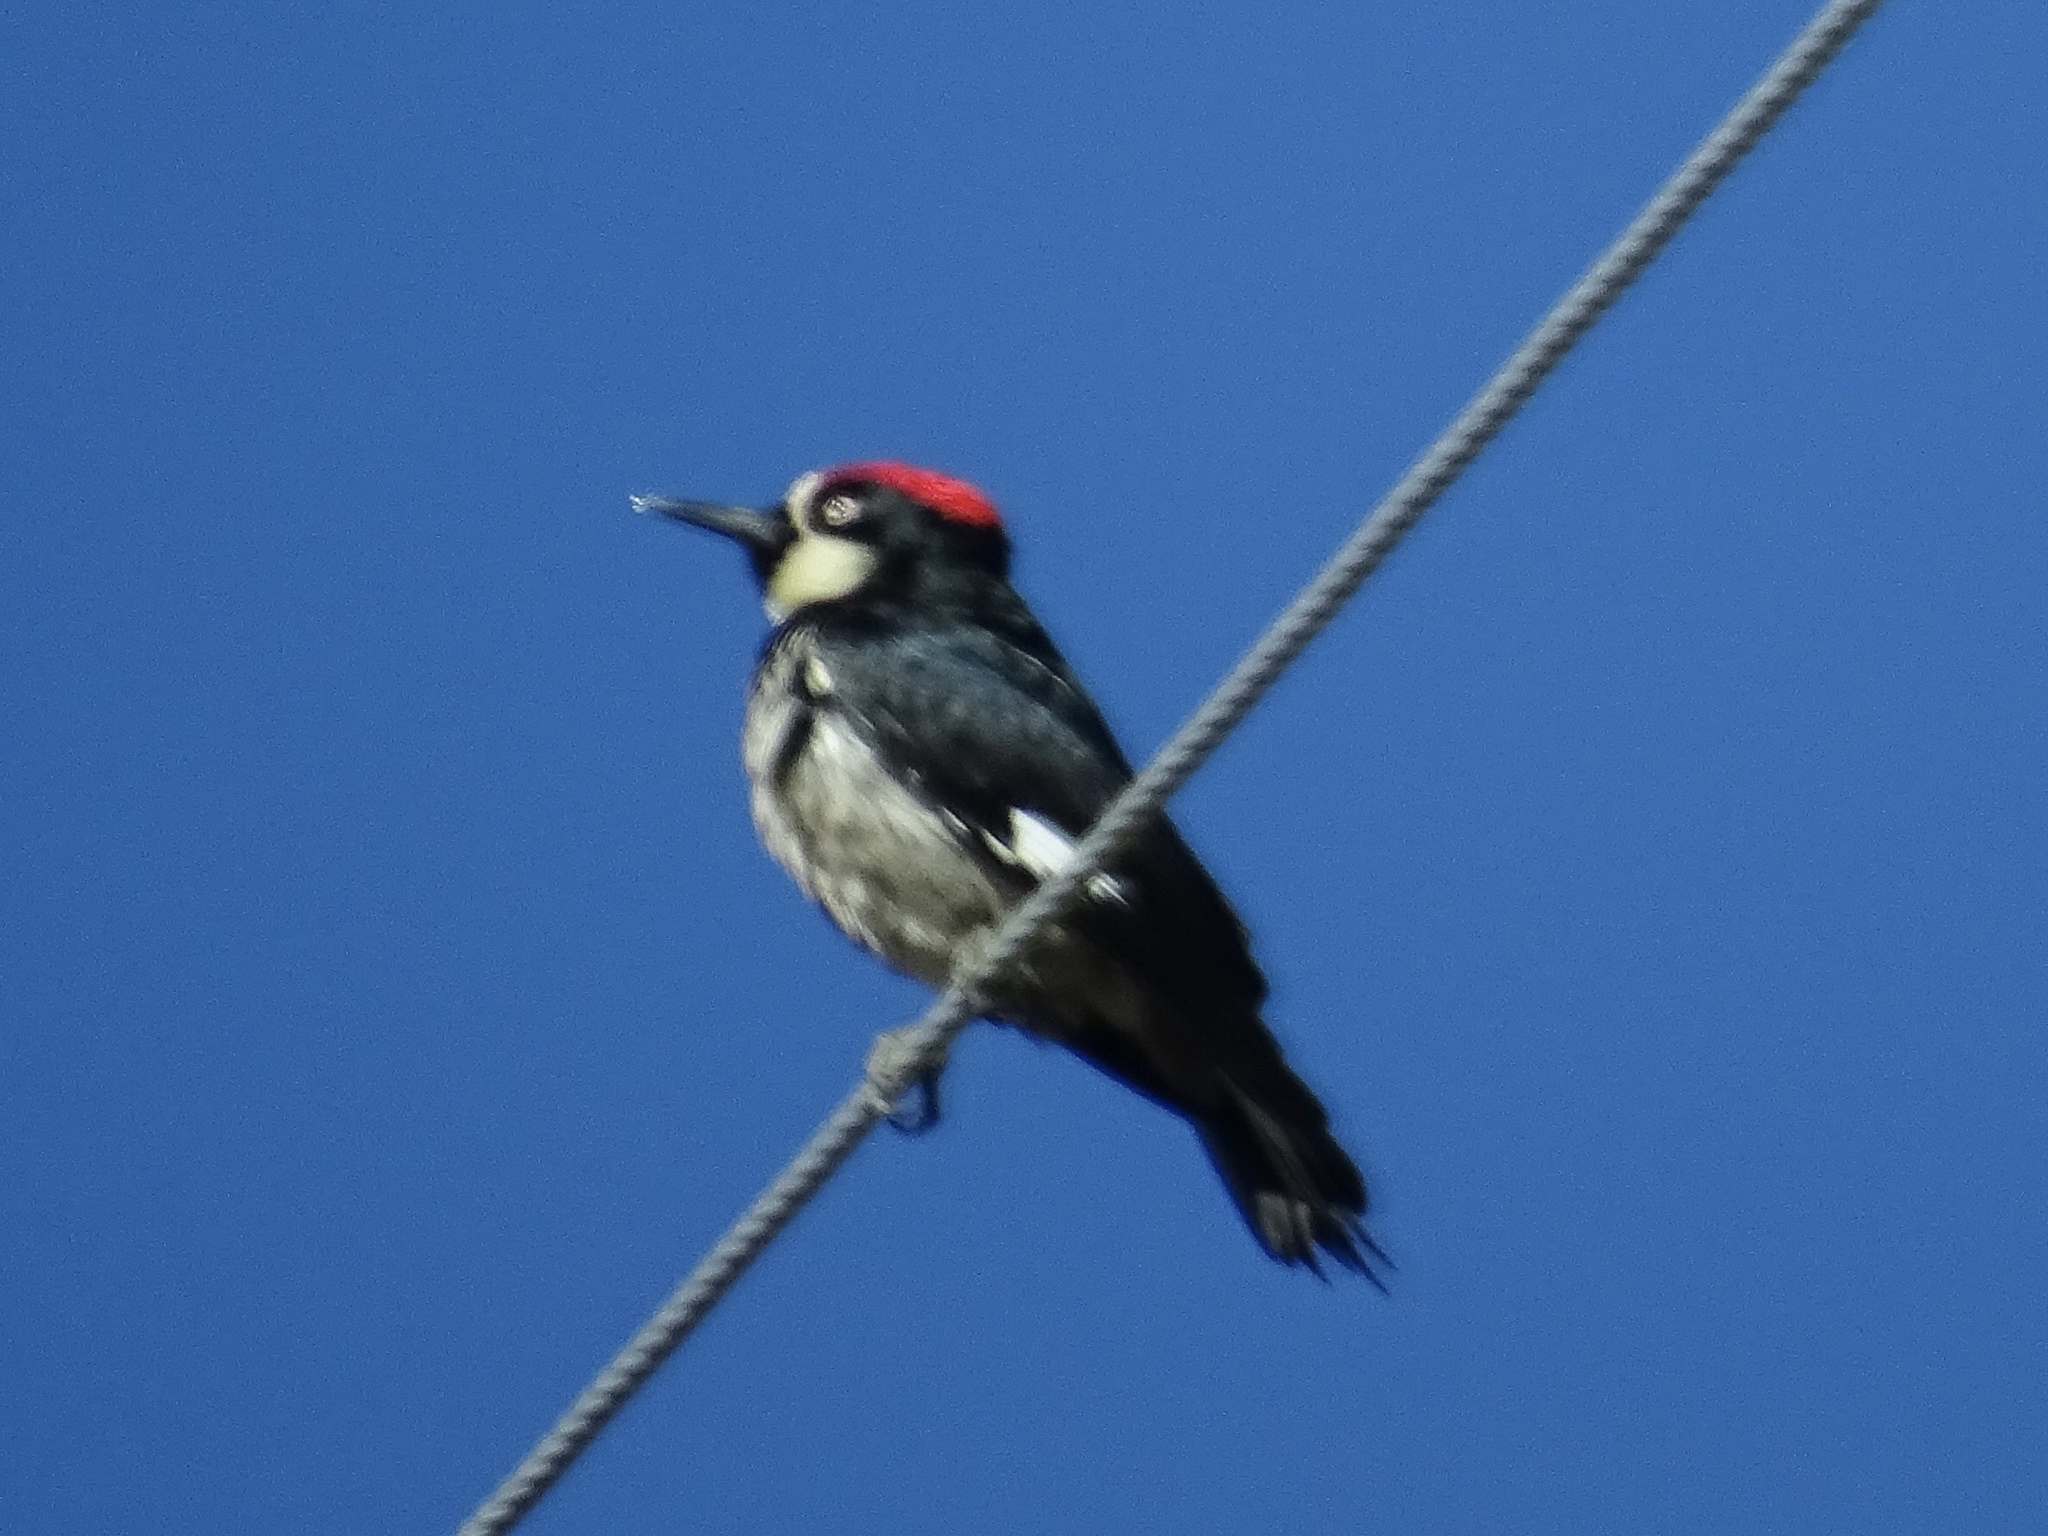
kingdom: Animalia
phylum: Chordata
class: Aves
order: Piciformes
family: Picidae
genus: Melanerpes
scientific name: Melanerpes formicivorus
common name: Acorn woodpecker
